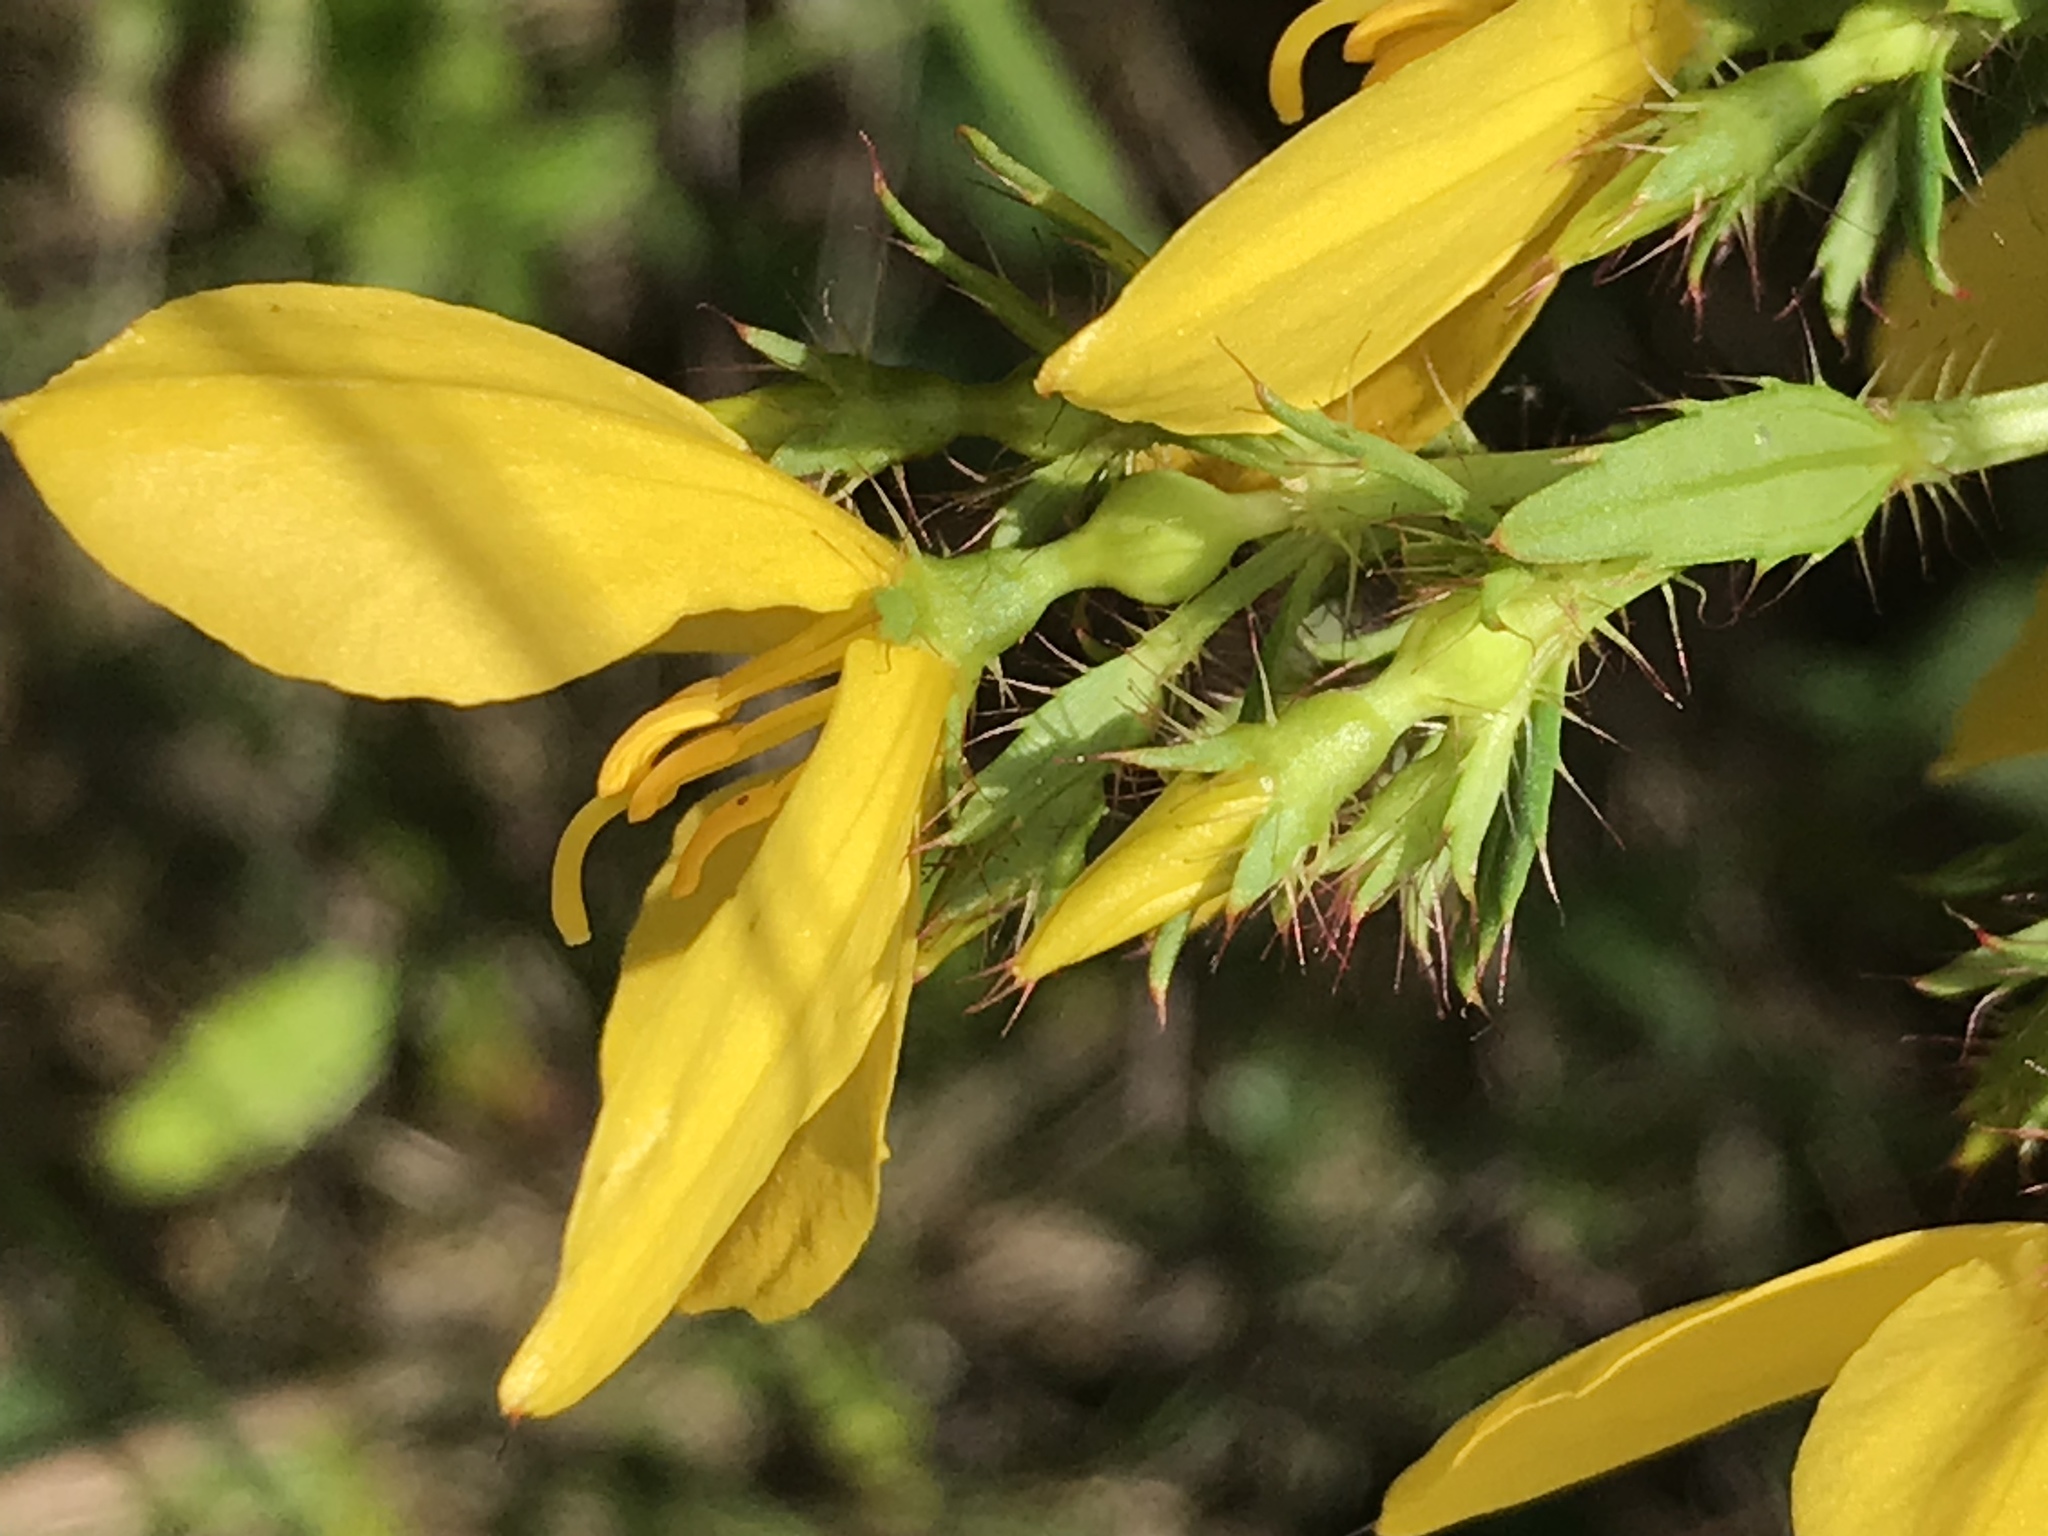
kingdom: Plantae
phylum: Tracheophyta
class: Magnoliopsida
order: Myrtales
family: Melastomataceae
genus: Rhexia
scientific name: Rhexia lutea
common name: Golden meadow-beauty
